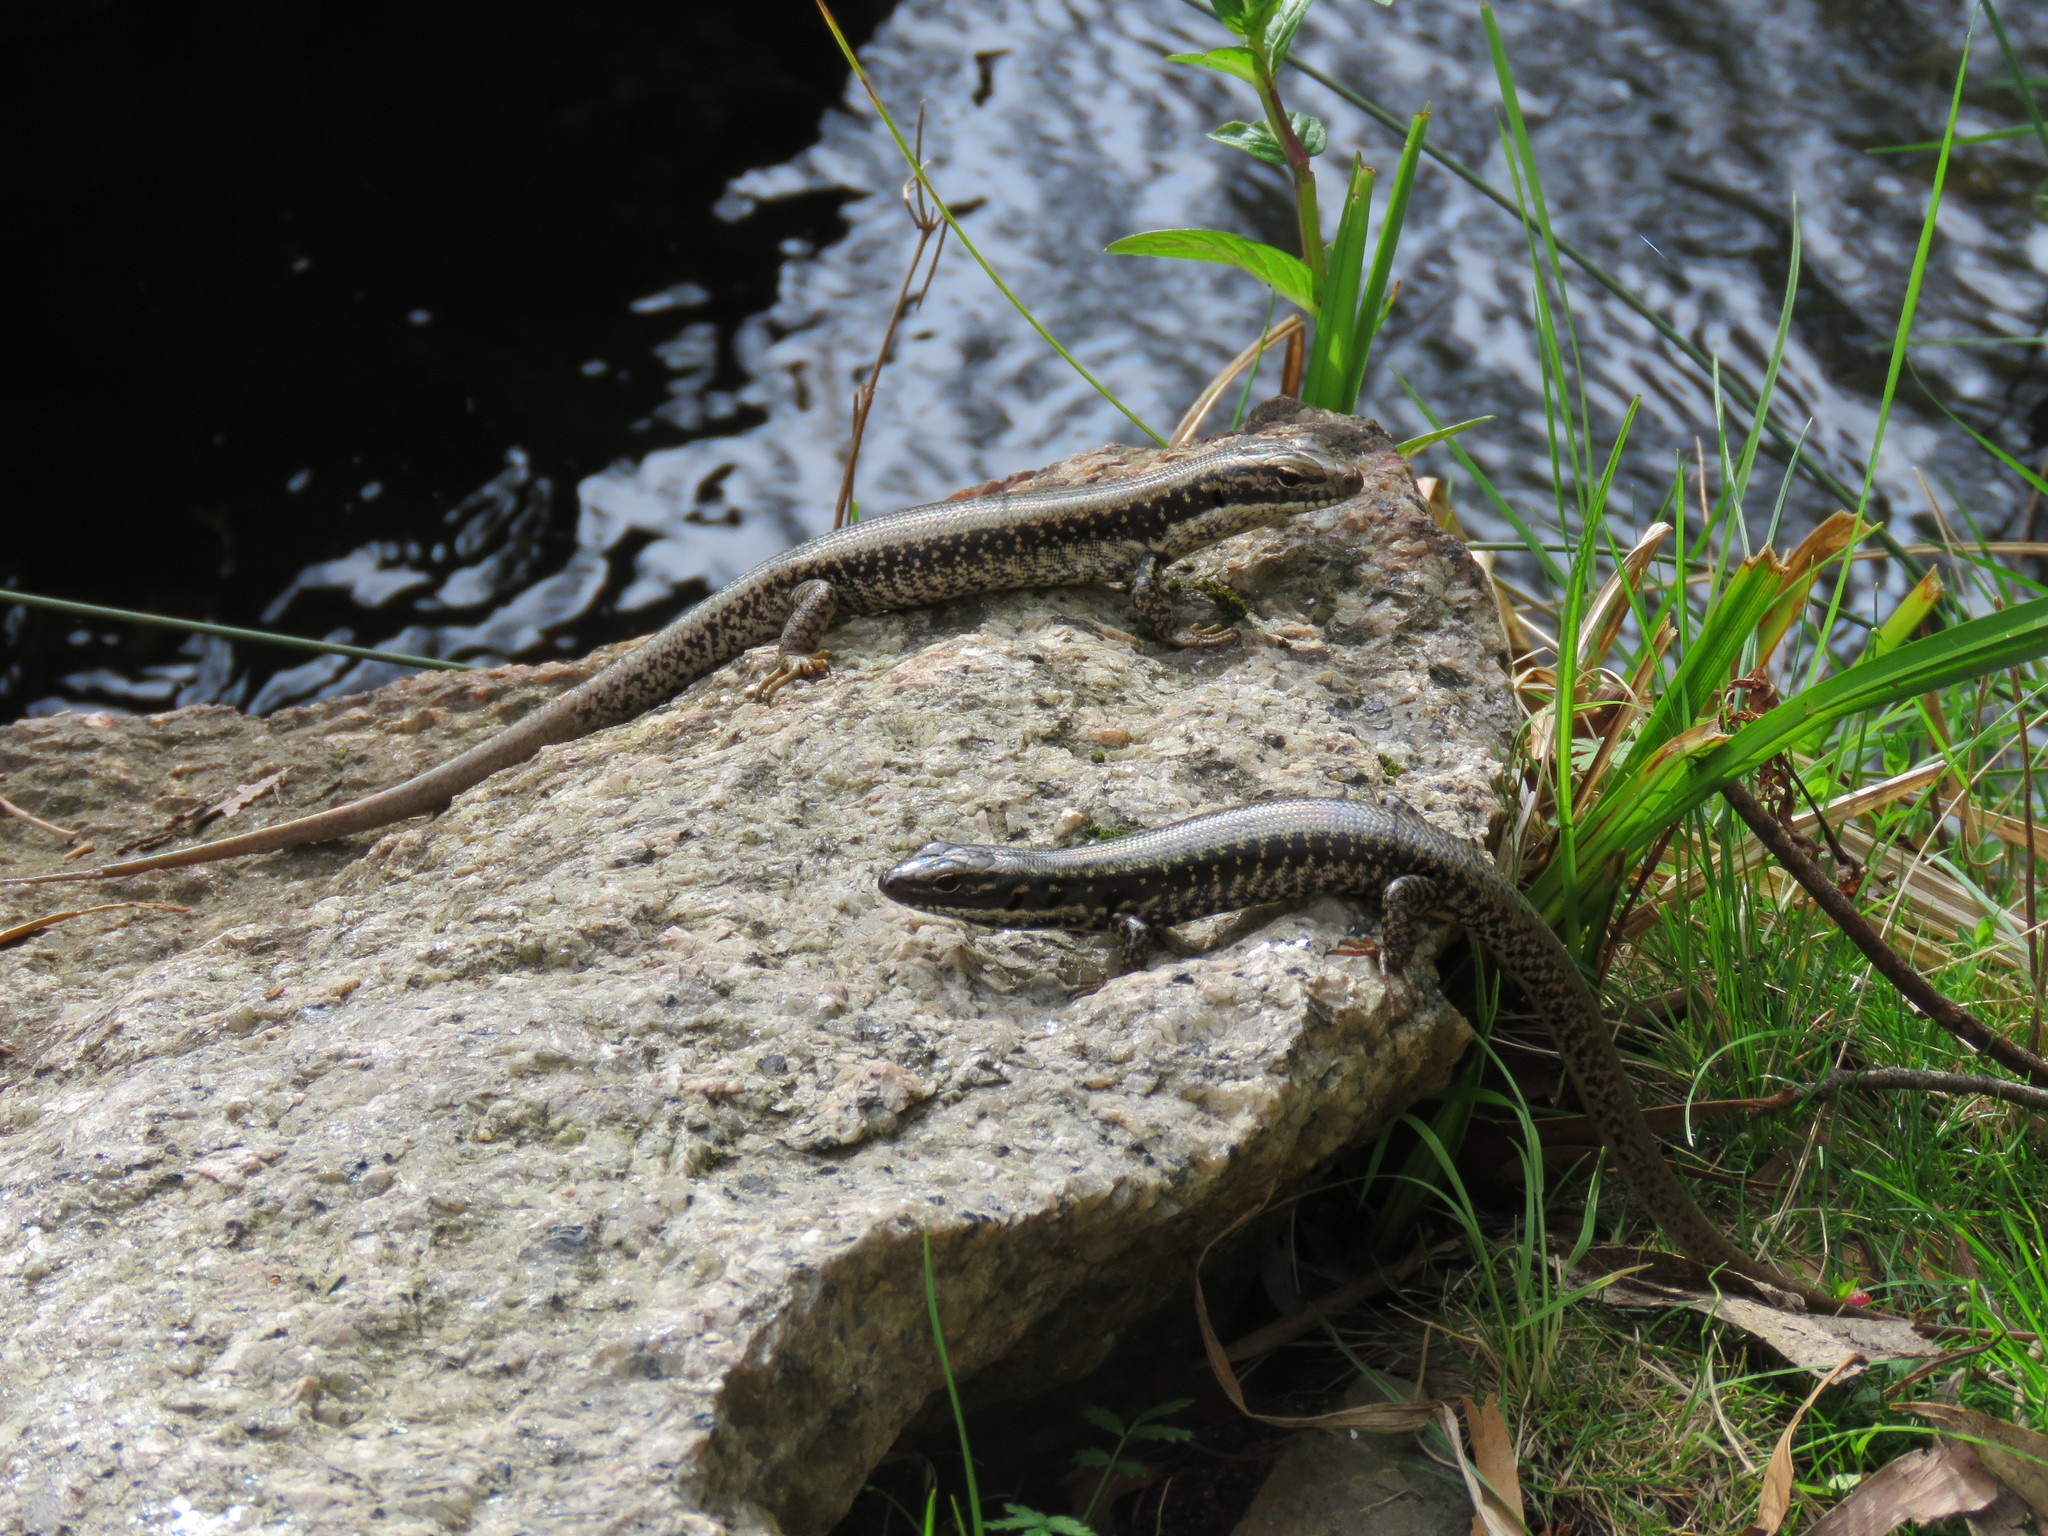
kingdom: Animalia
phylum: Chordata
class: Squamata
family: Scincidae
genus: Eulamprus
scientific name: Eulamprus heatwolei
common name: Warm-temperate water-skink
